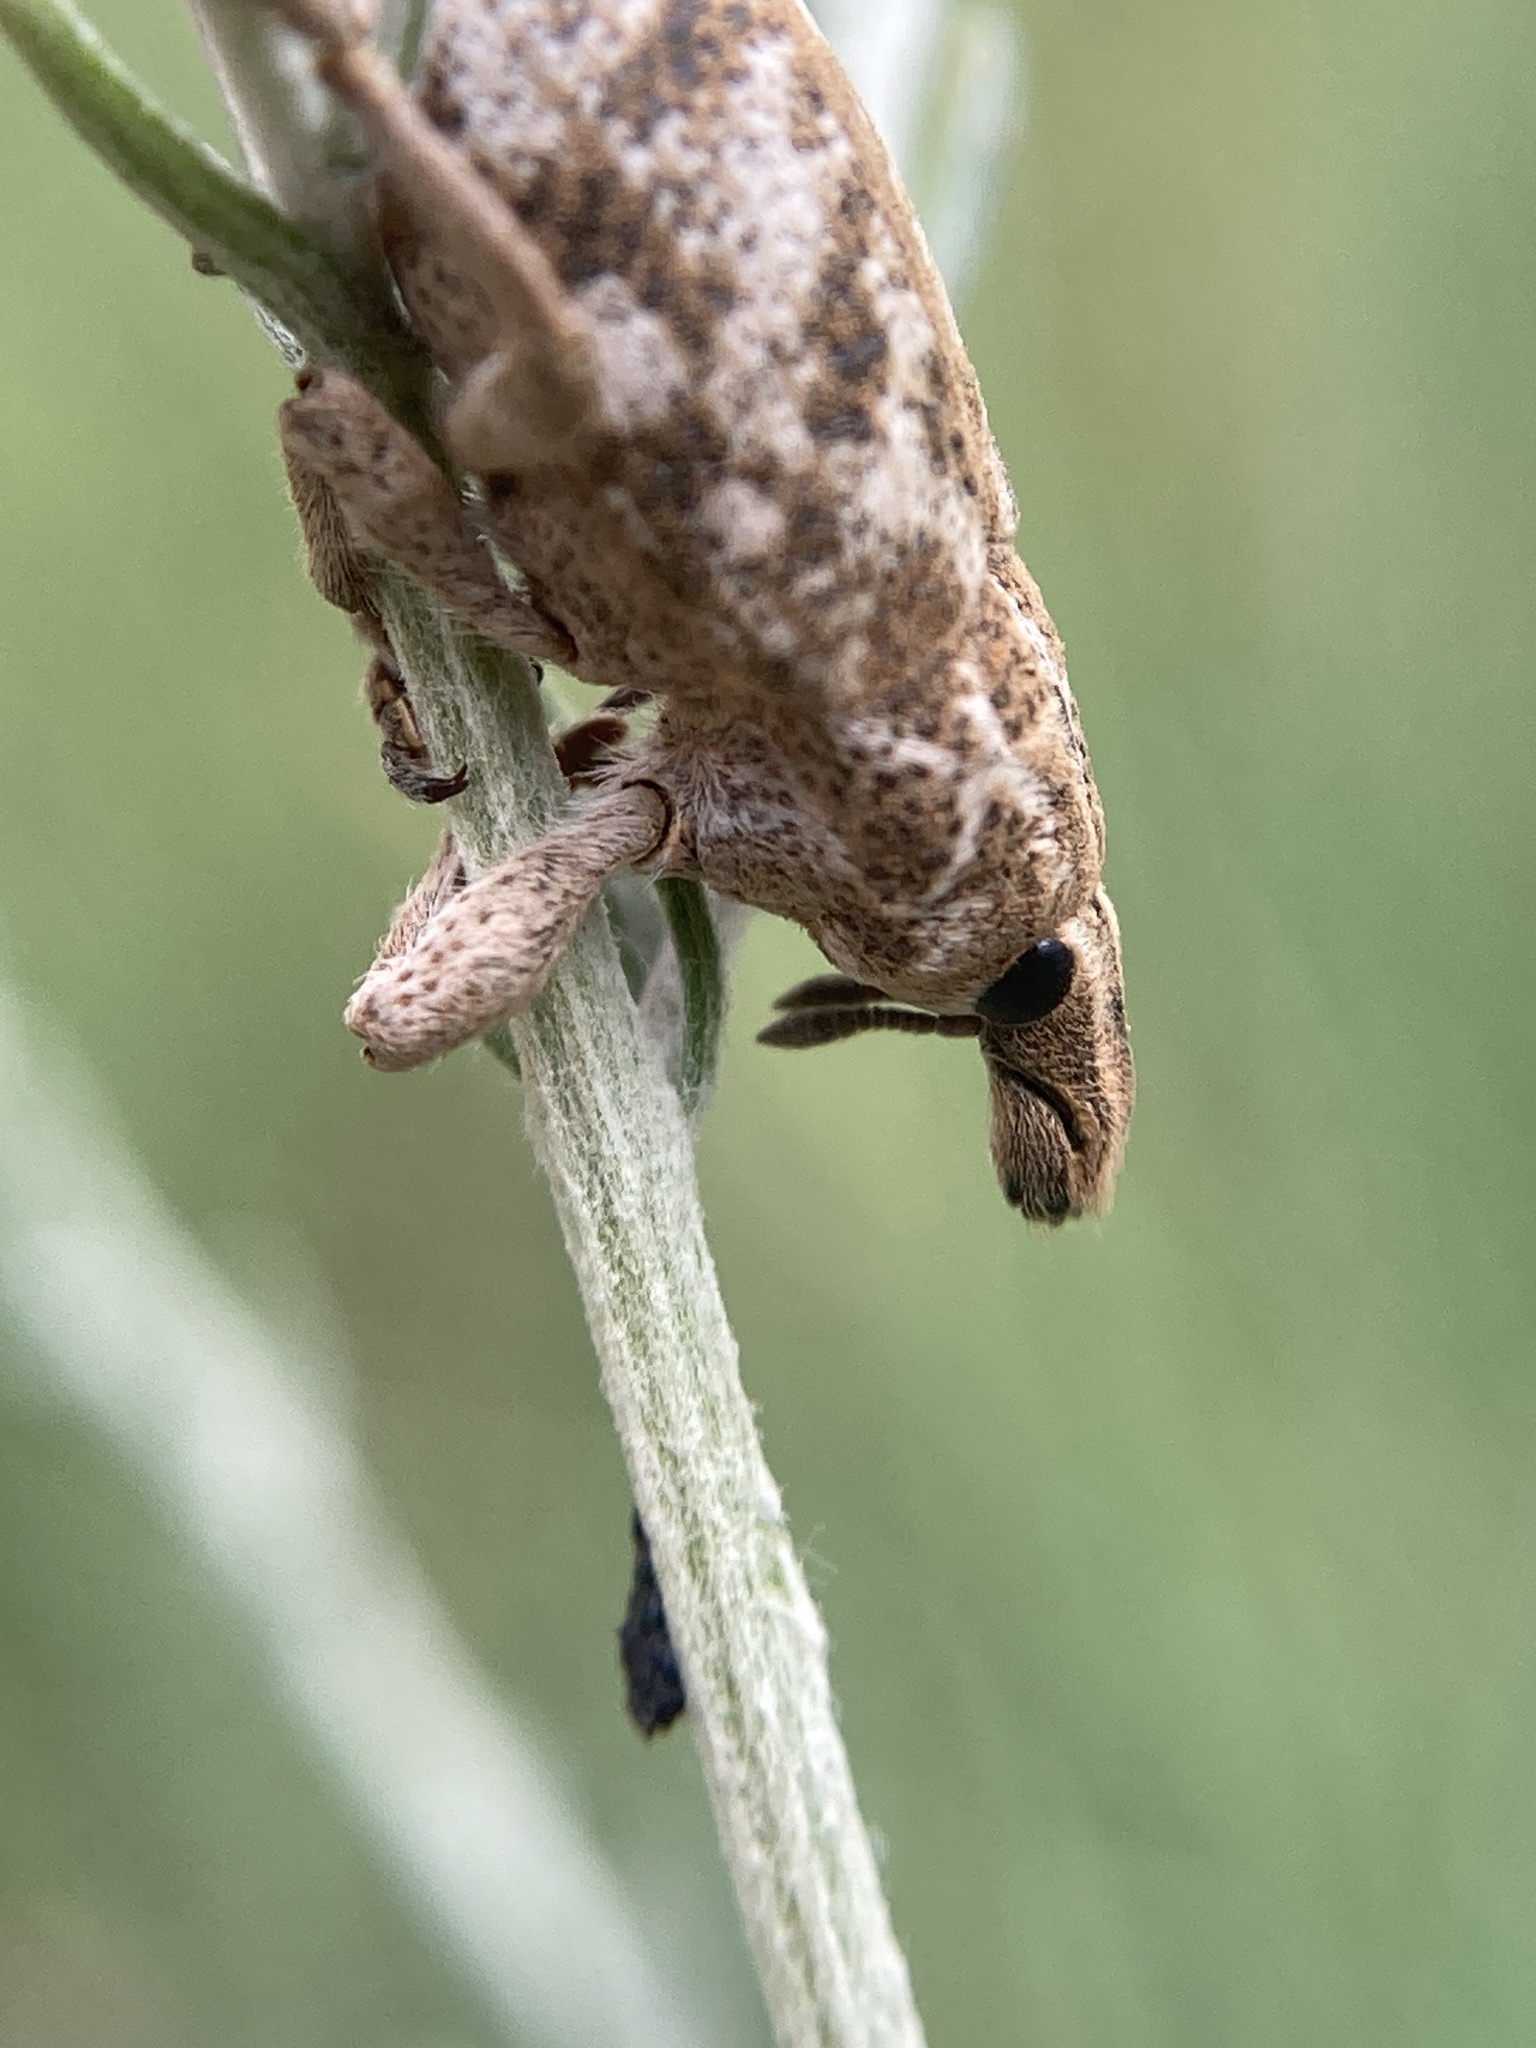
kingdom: Animalia
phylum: Arthropoda
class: Insecta
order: Coleoptera
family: Curculionidae
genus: Cyphocleonus
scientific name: Cyphocleonus dealbatus
